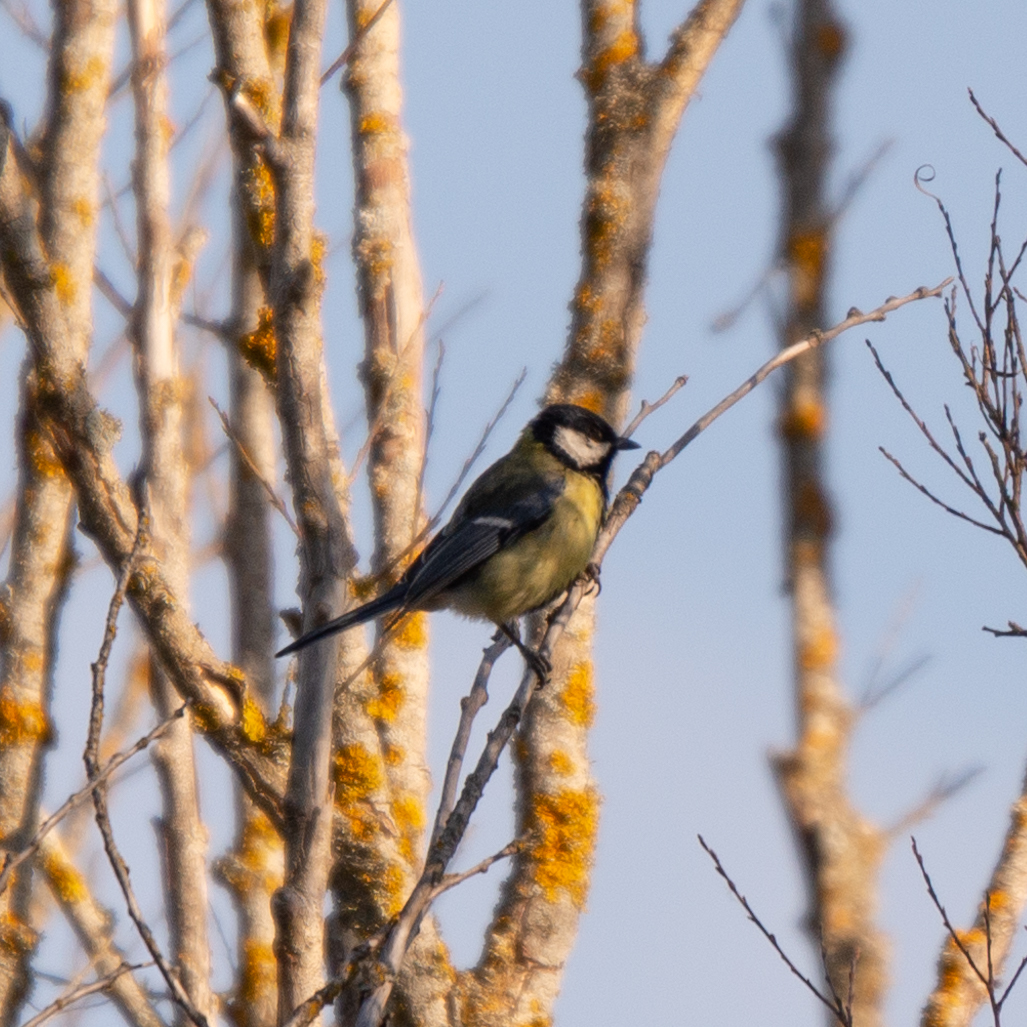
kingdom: Animalia
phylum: Chordata
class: Aves
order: Passeriformes
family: Paridae
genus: Parus
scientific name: Parus major
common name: Great tit
